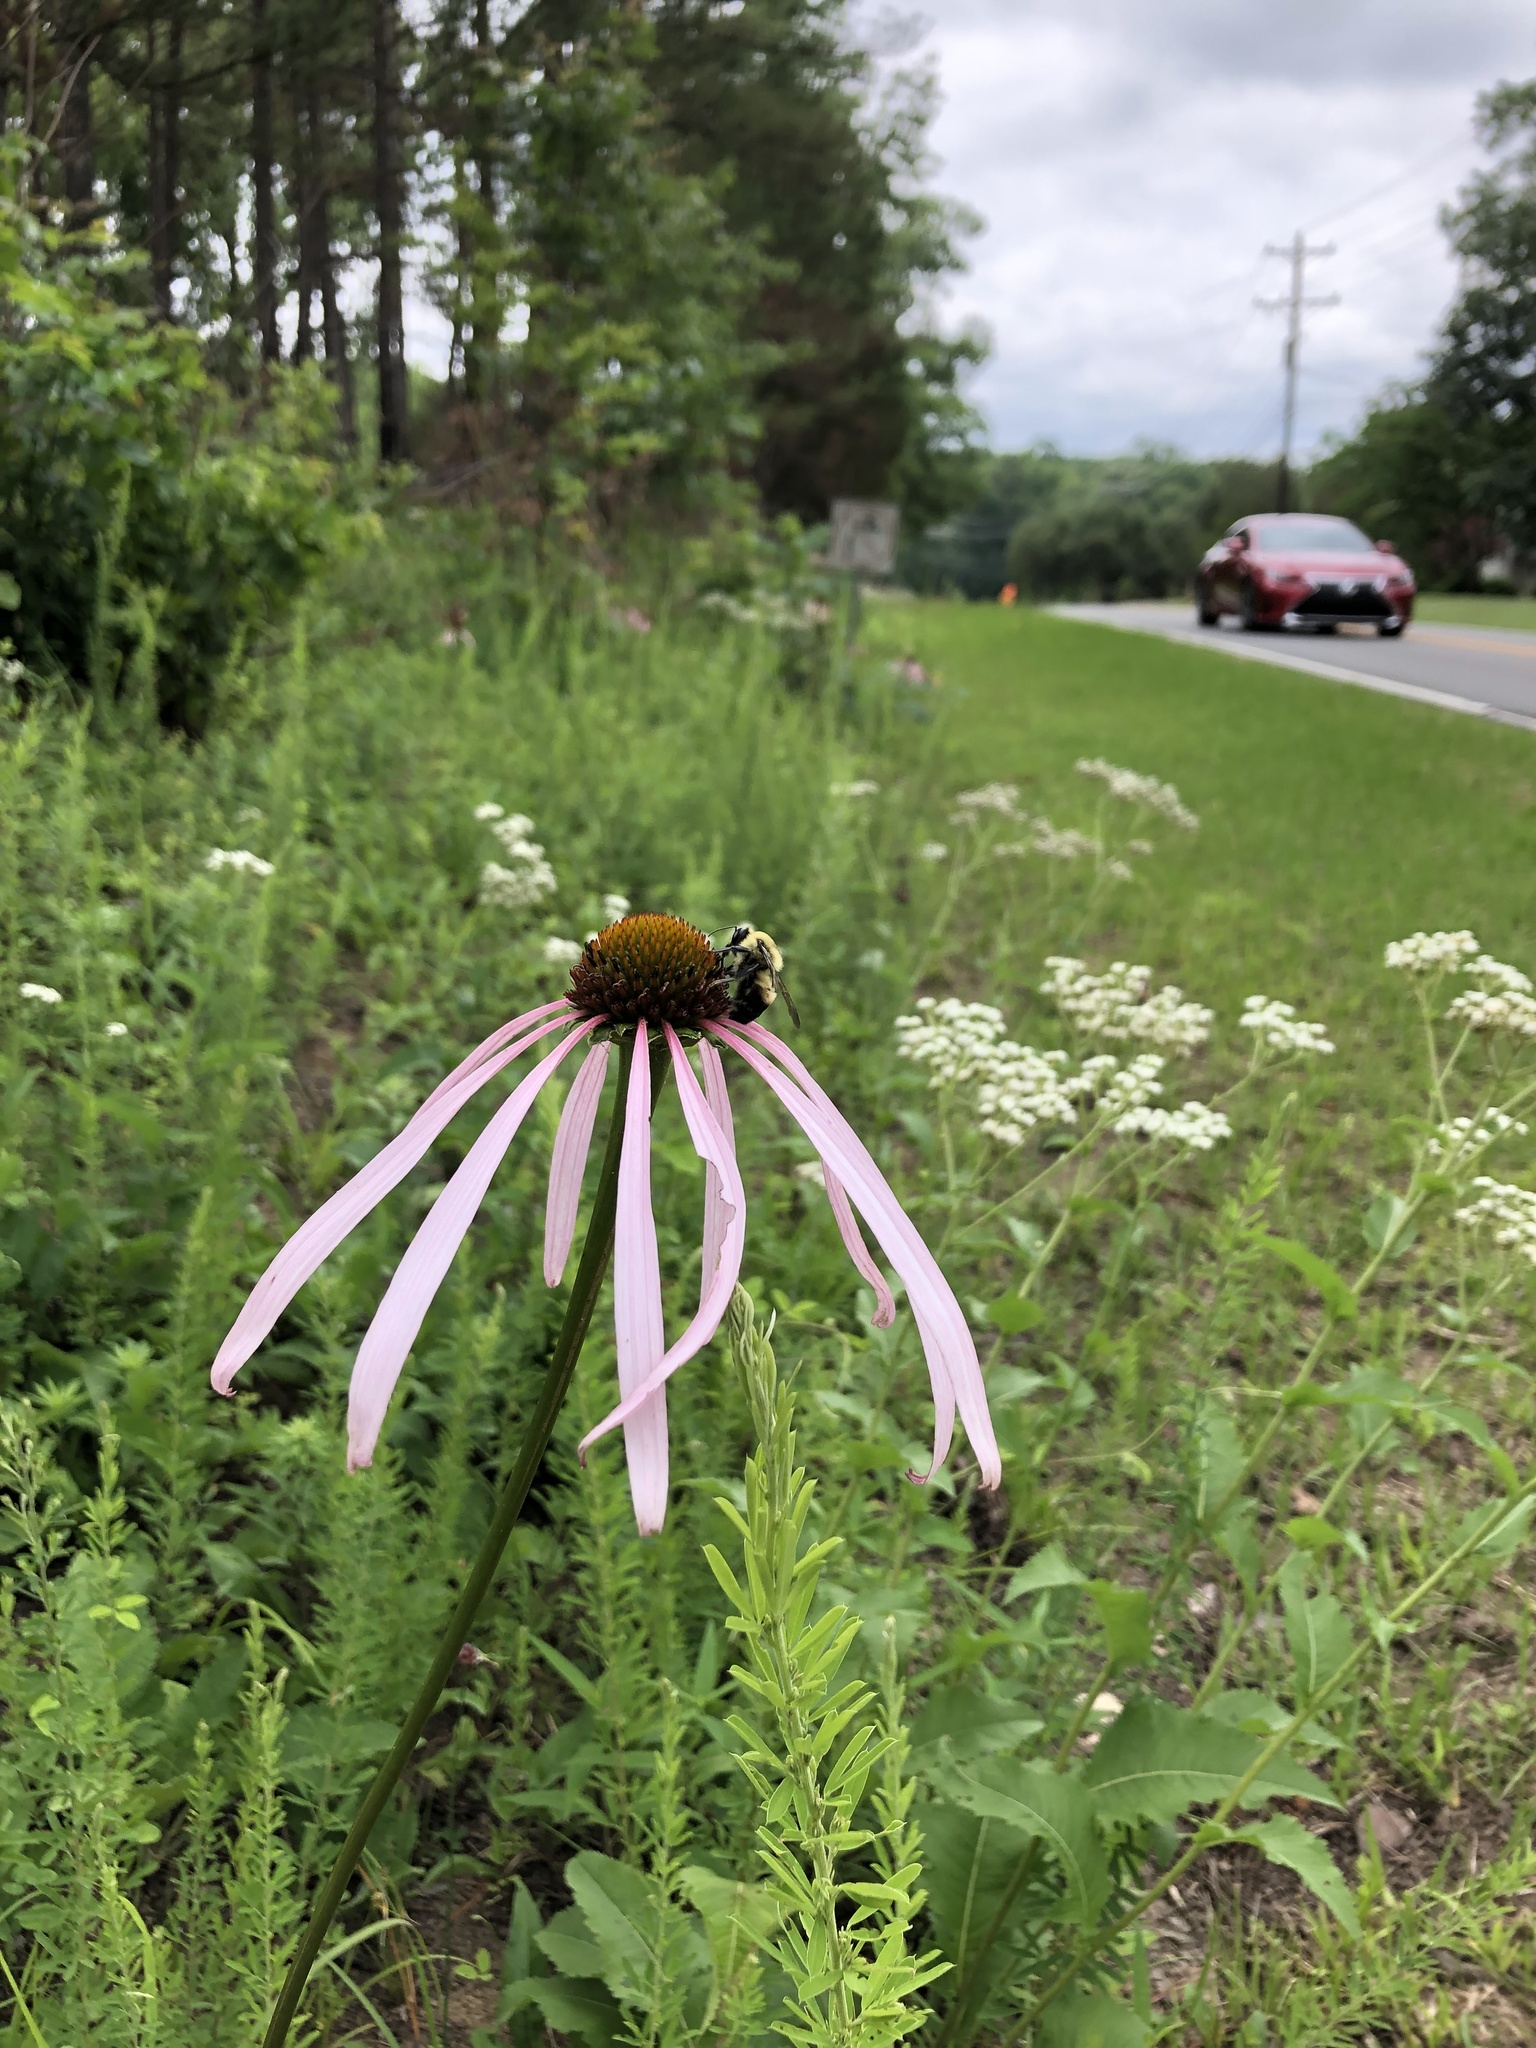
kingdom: Plantae
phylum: Tracheophyta
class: Magnoliopsida
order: Asterales
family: Asteraceae
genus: Echinacea
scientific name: Echinacea laevigata
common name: Smooth coneflower
